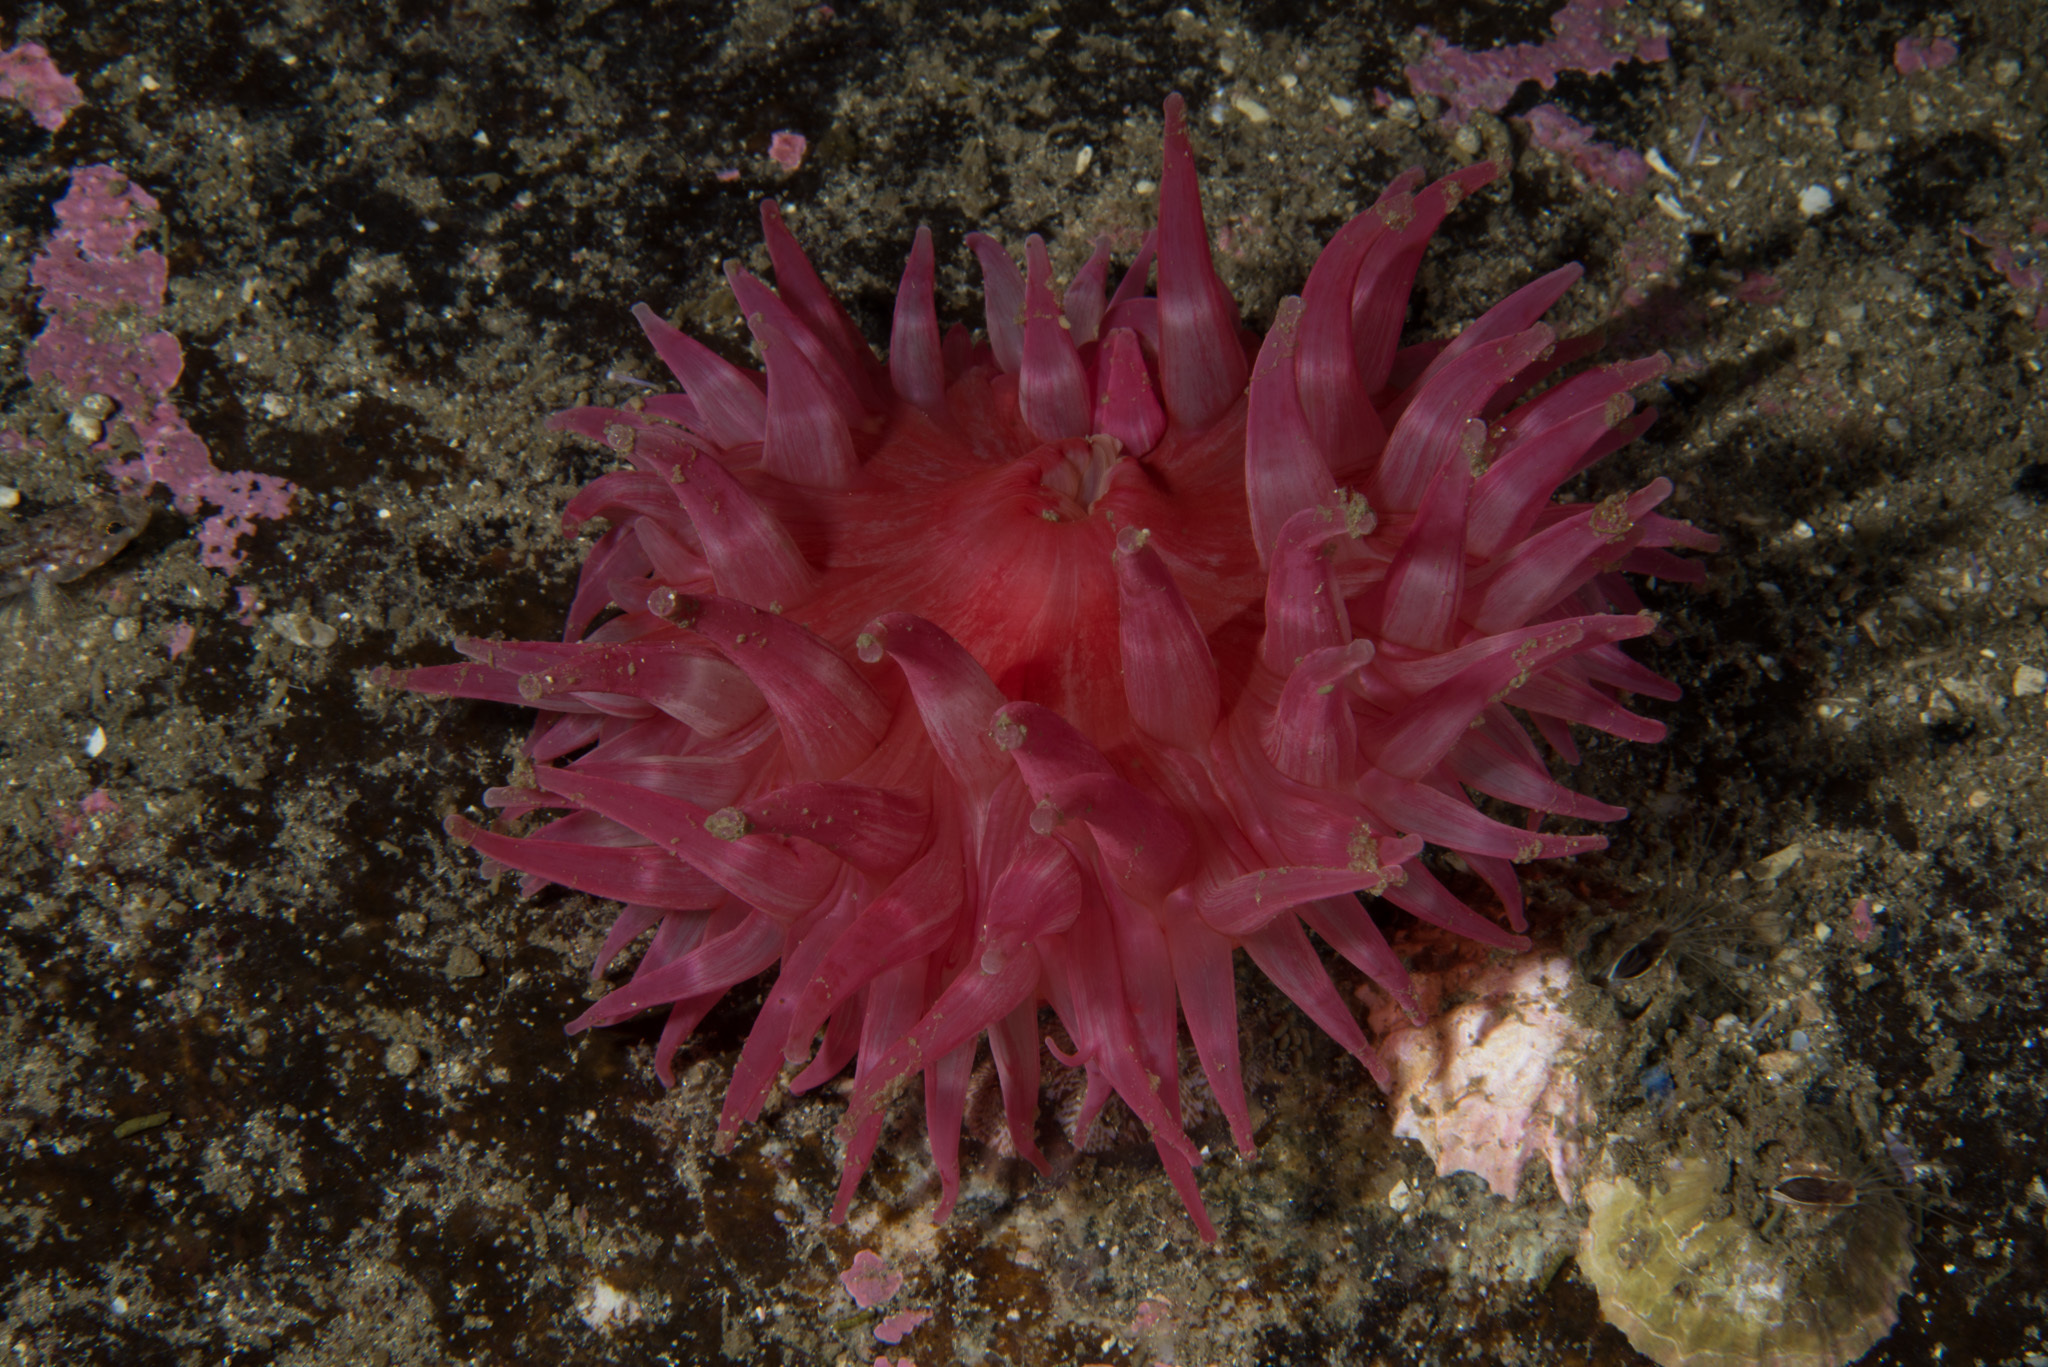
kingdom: Animalia
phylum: Cnidaria
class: Anthozoa
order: Actiniaria
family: Actiniidae
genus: Urticina
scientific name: Urticina eques
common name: Horseman anemone
